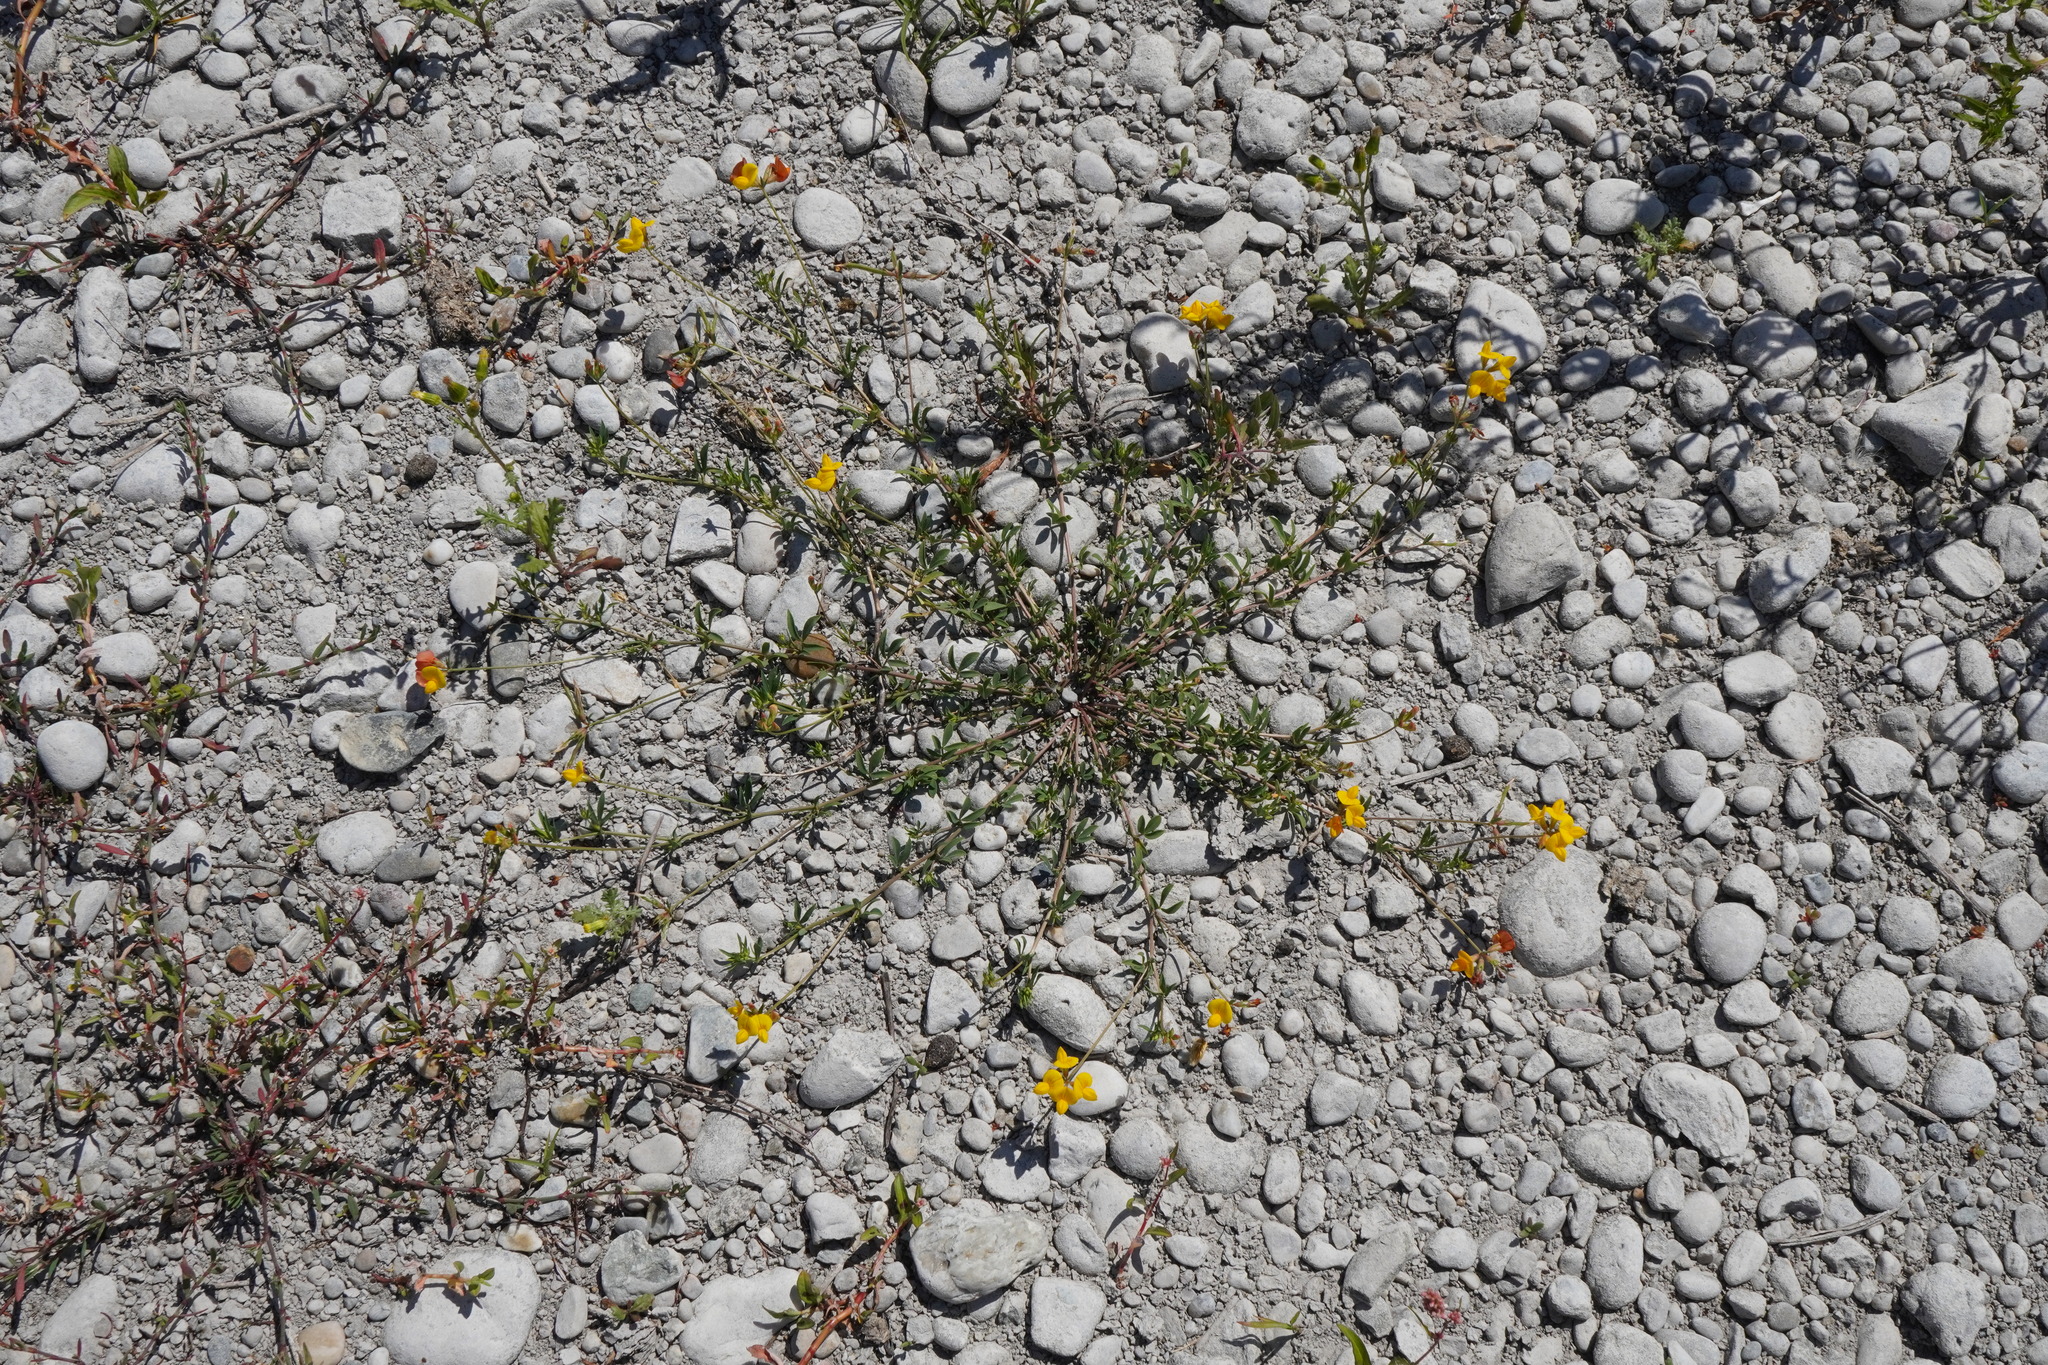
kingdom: Plantae
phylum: Tracheophyta
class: Magnoliopsida
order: Fabales
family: Fabaceae
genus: Lotus
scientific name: Lotus tenuis
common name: Narrow-leaved bird's-foot-trefoil
